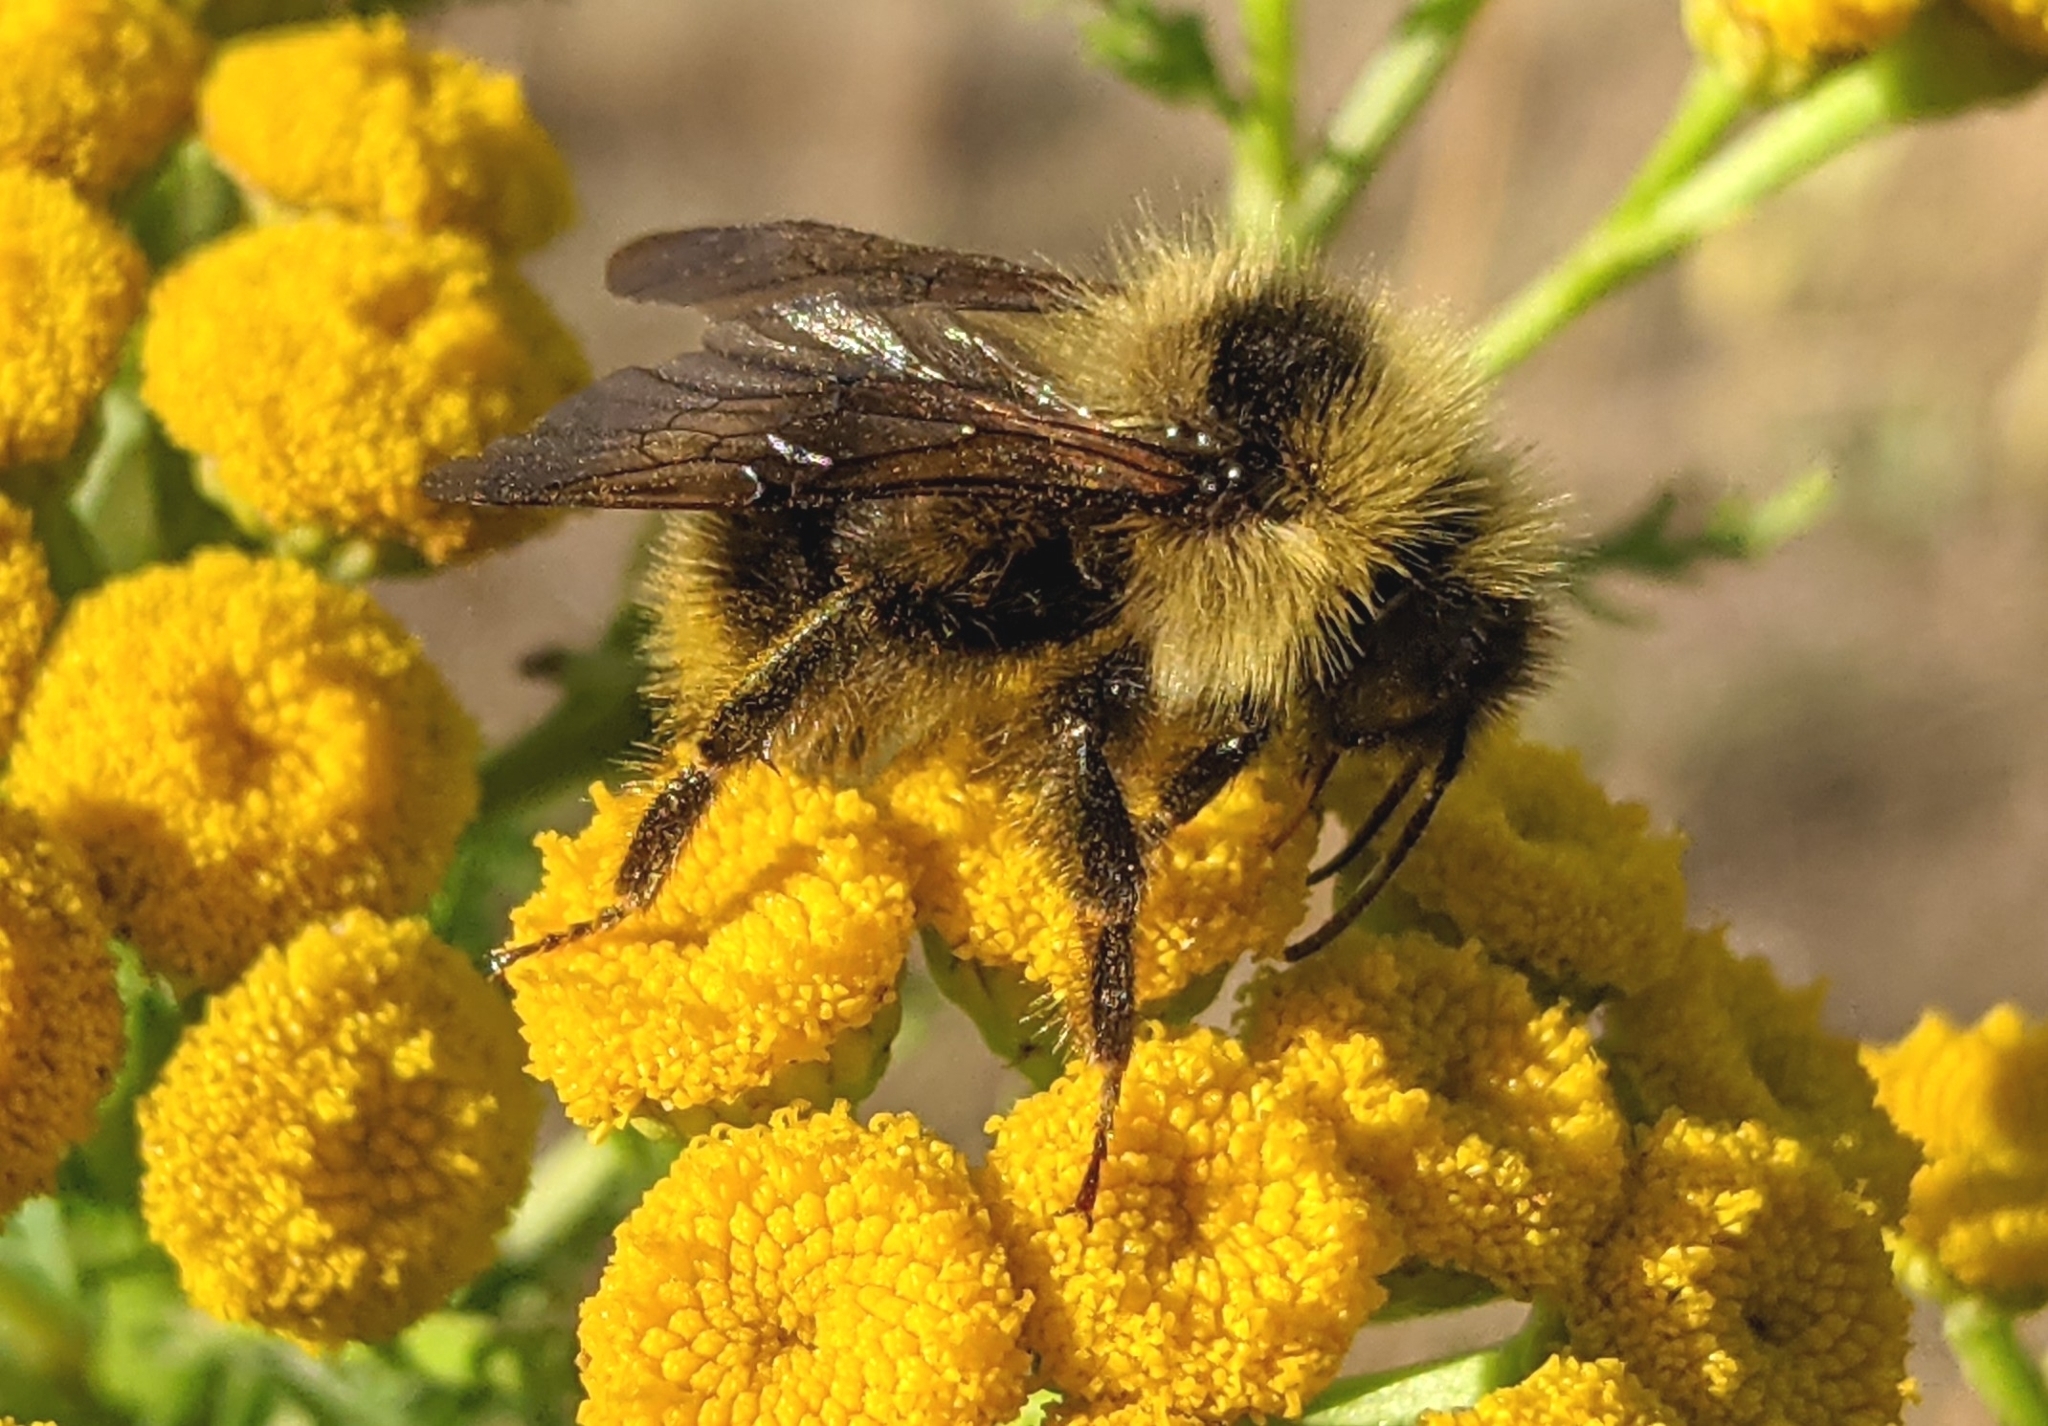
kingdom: Animalia
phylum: Arthropoda
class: Insecta
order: Hymenoptera
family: Apidae
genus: Bombus
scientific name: Bombus flavidus
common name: Fernald cuckoo bumble bee
